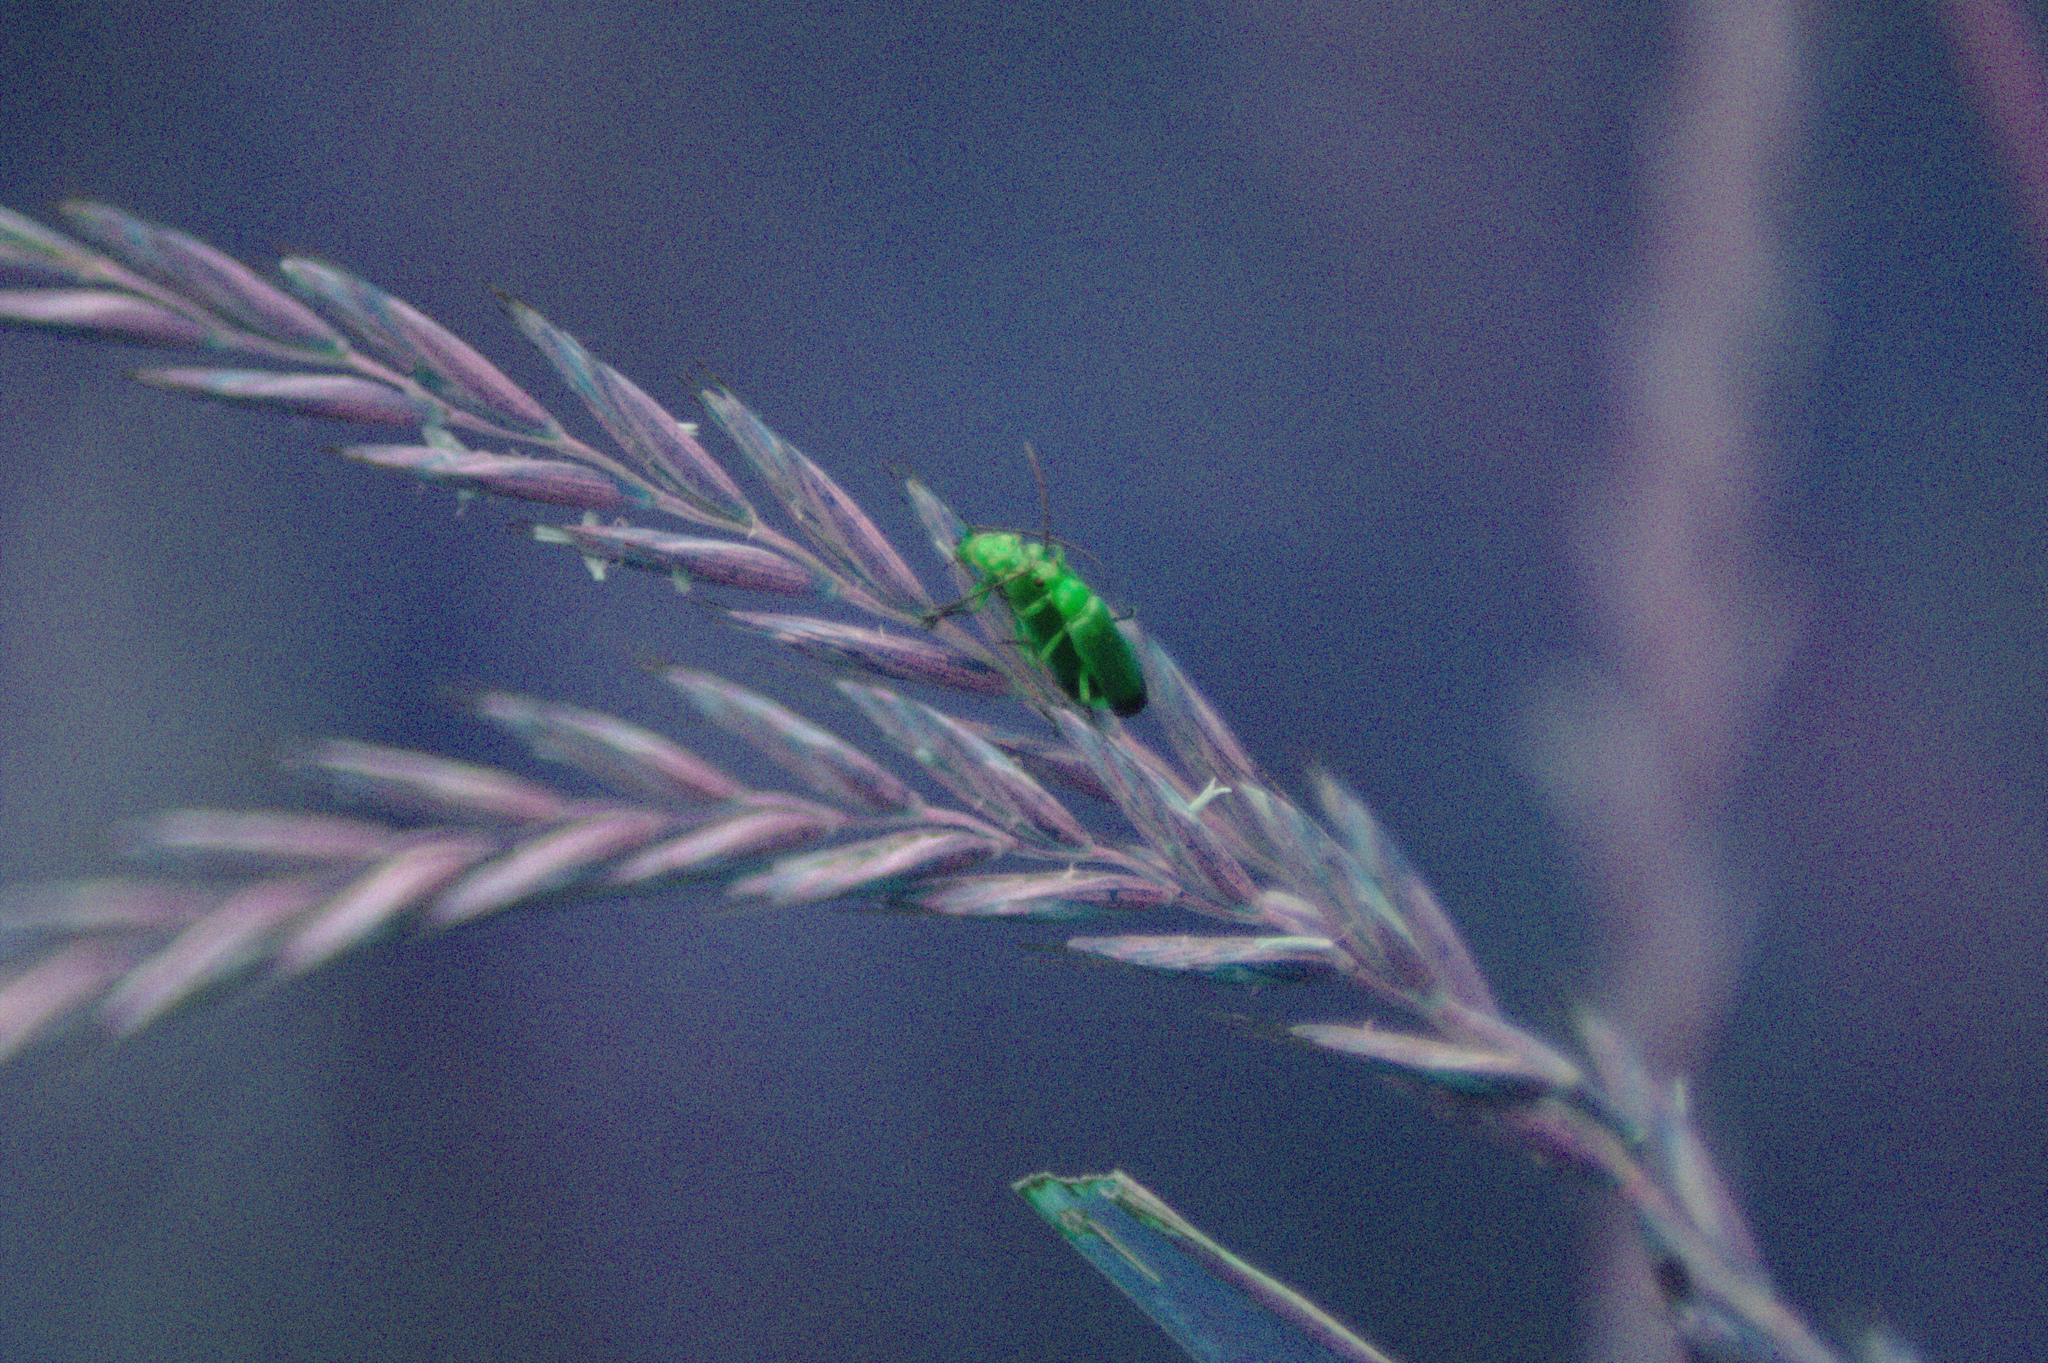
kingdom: Animalia
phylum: Arthropoda
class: Insecta
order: Coleoptera
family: Cantharidae
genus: Rhagonycha
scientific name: Rhagonycha fulva
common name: Common red soldier beetle
